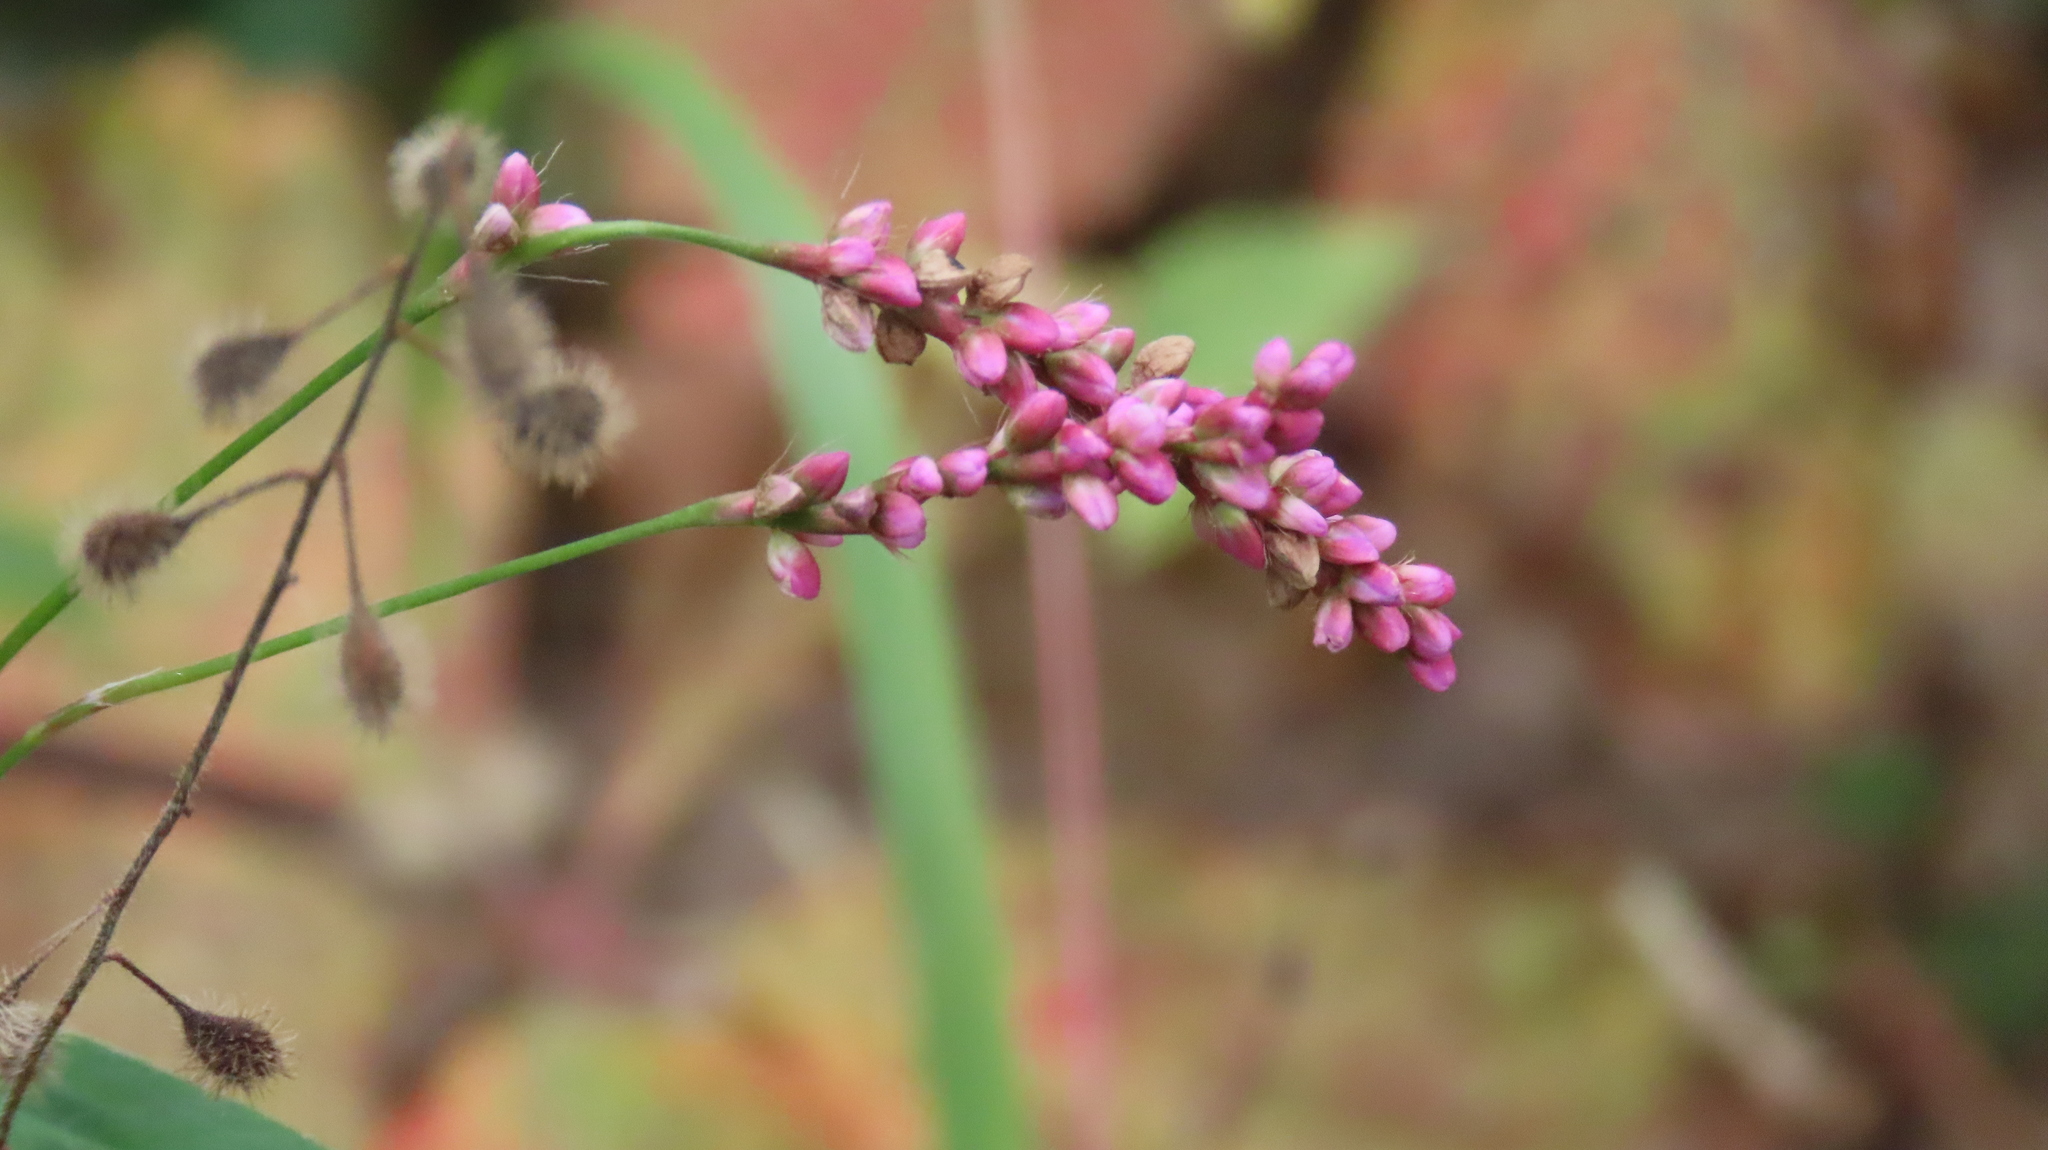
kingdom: Plantae
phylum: Tracheophyta
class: Magnoliopsida
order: Caryophyllales
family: Polygonaceae
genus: Persicaria
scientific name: Persicaria longiseta
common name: Bristly lady's-thumb
